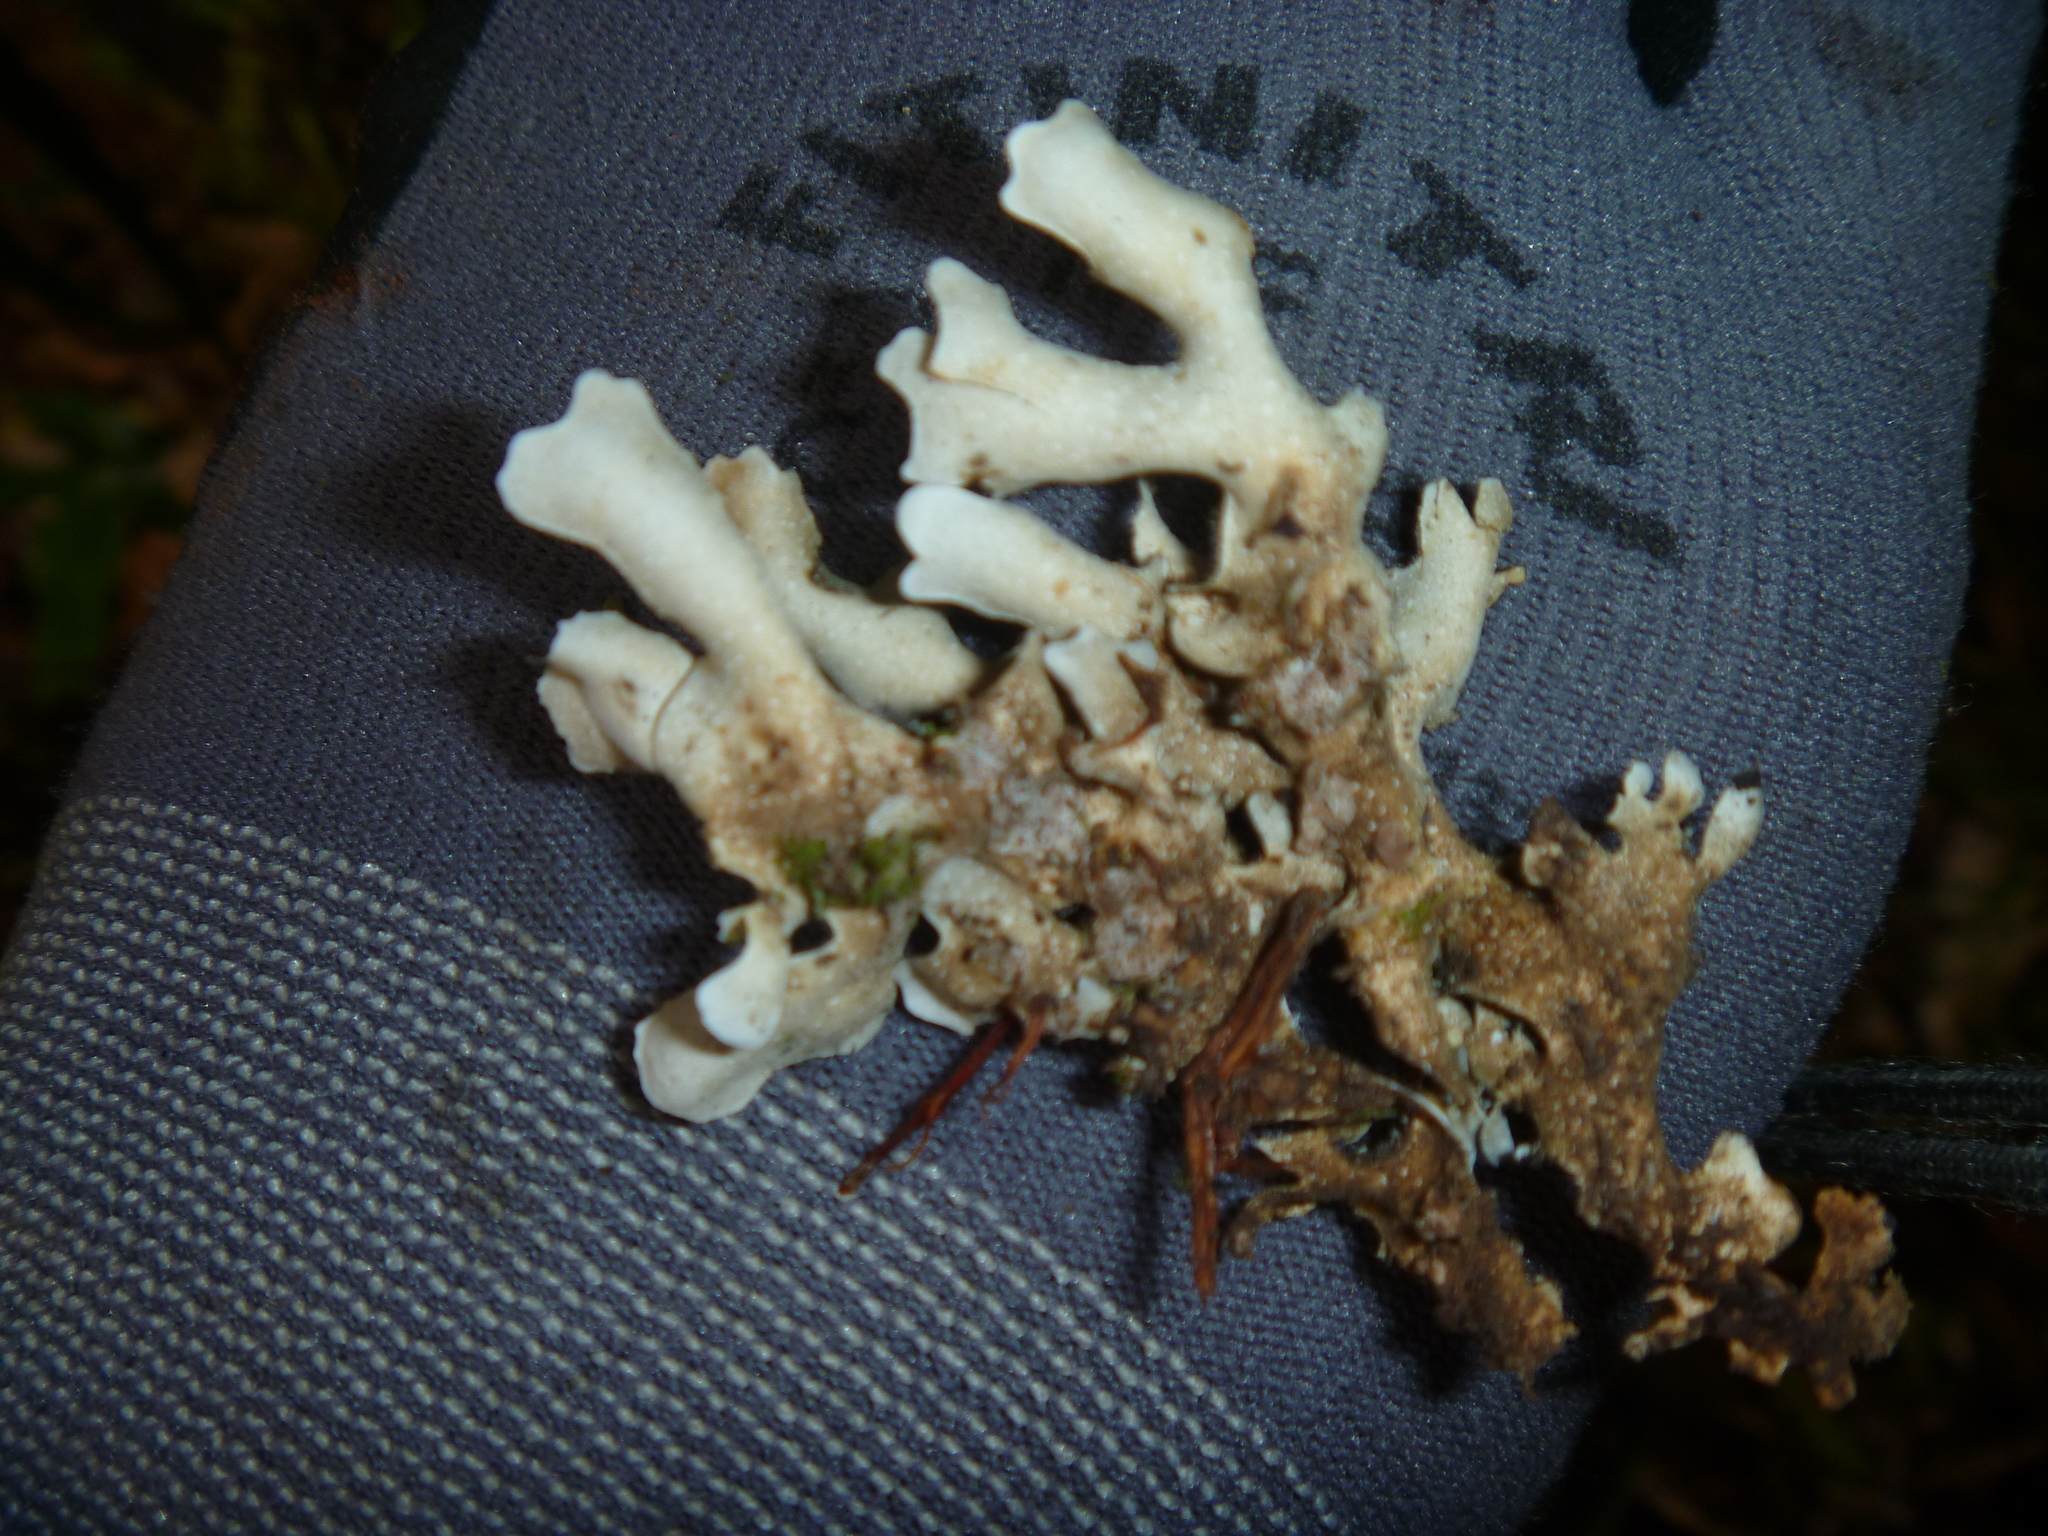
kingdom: Fungi
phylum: Ascomycota
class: Lecanoromycetes
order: Peltigerales
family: Lobariaceae
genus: Pseudocyphellaria
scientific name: Pseudocyphellaria dissimilis
